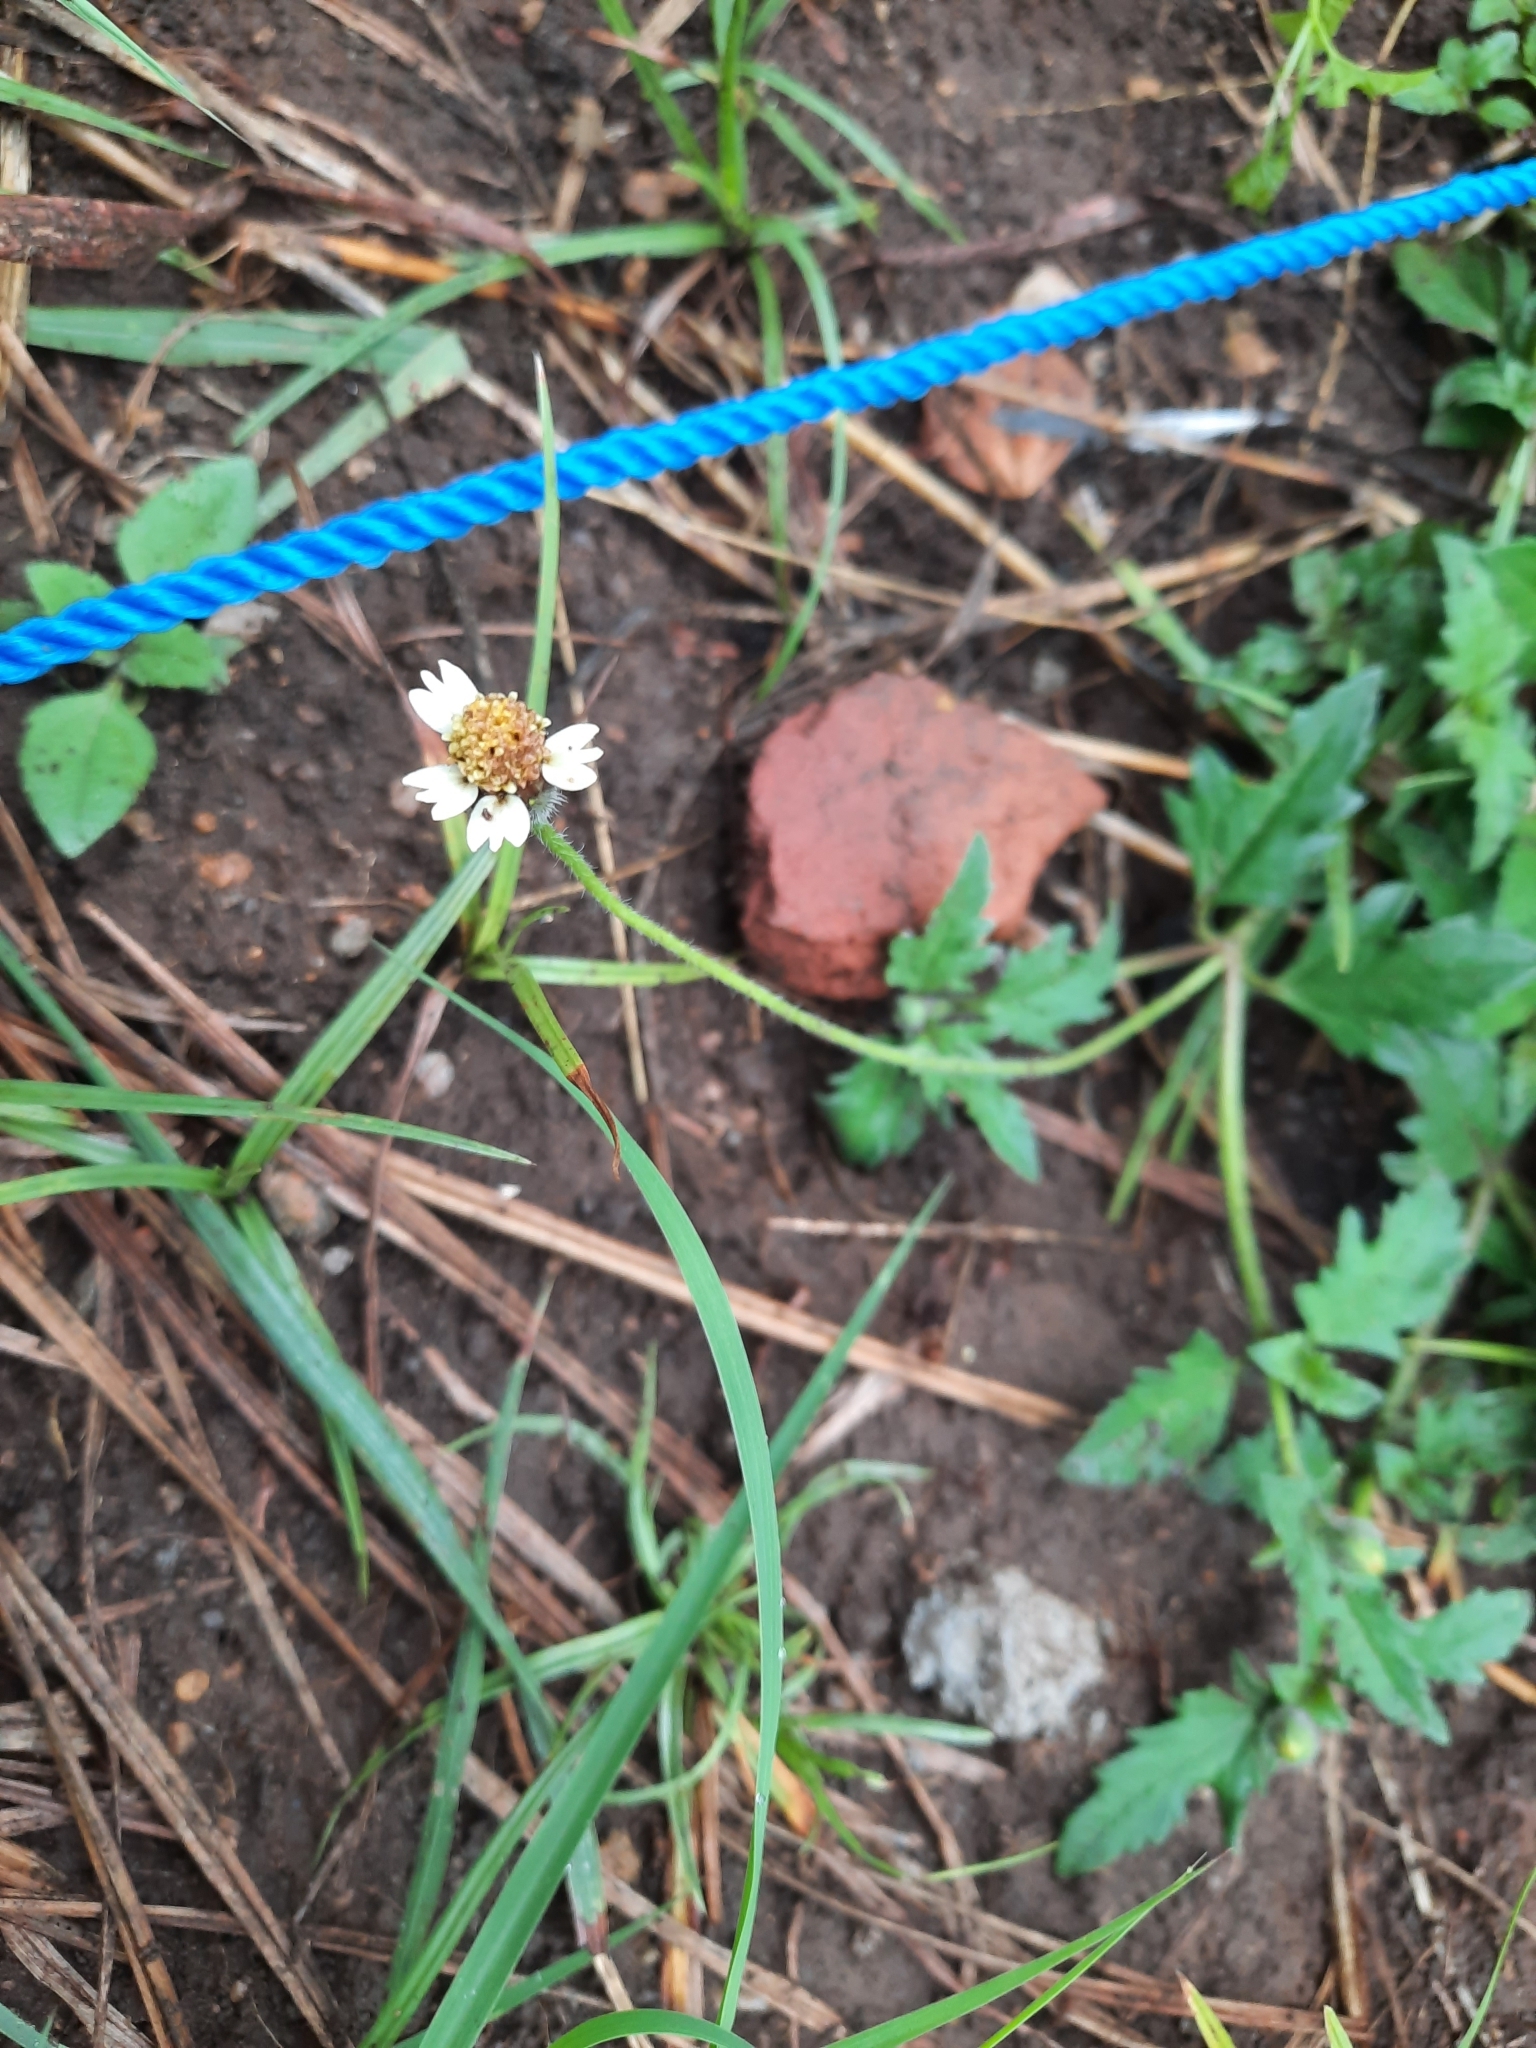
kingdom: Plantae
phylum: Tracheophyta
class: Magnoliopsida
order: Asterales
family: Asteraceae
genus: Tridax
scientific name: Tridax procumbens
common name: Coatbuttons
